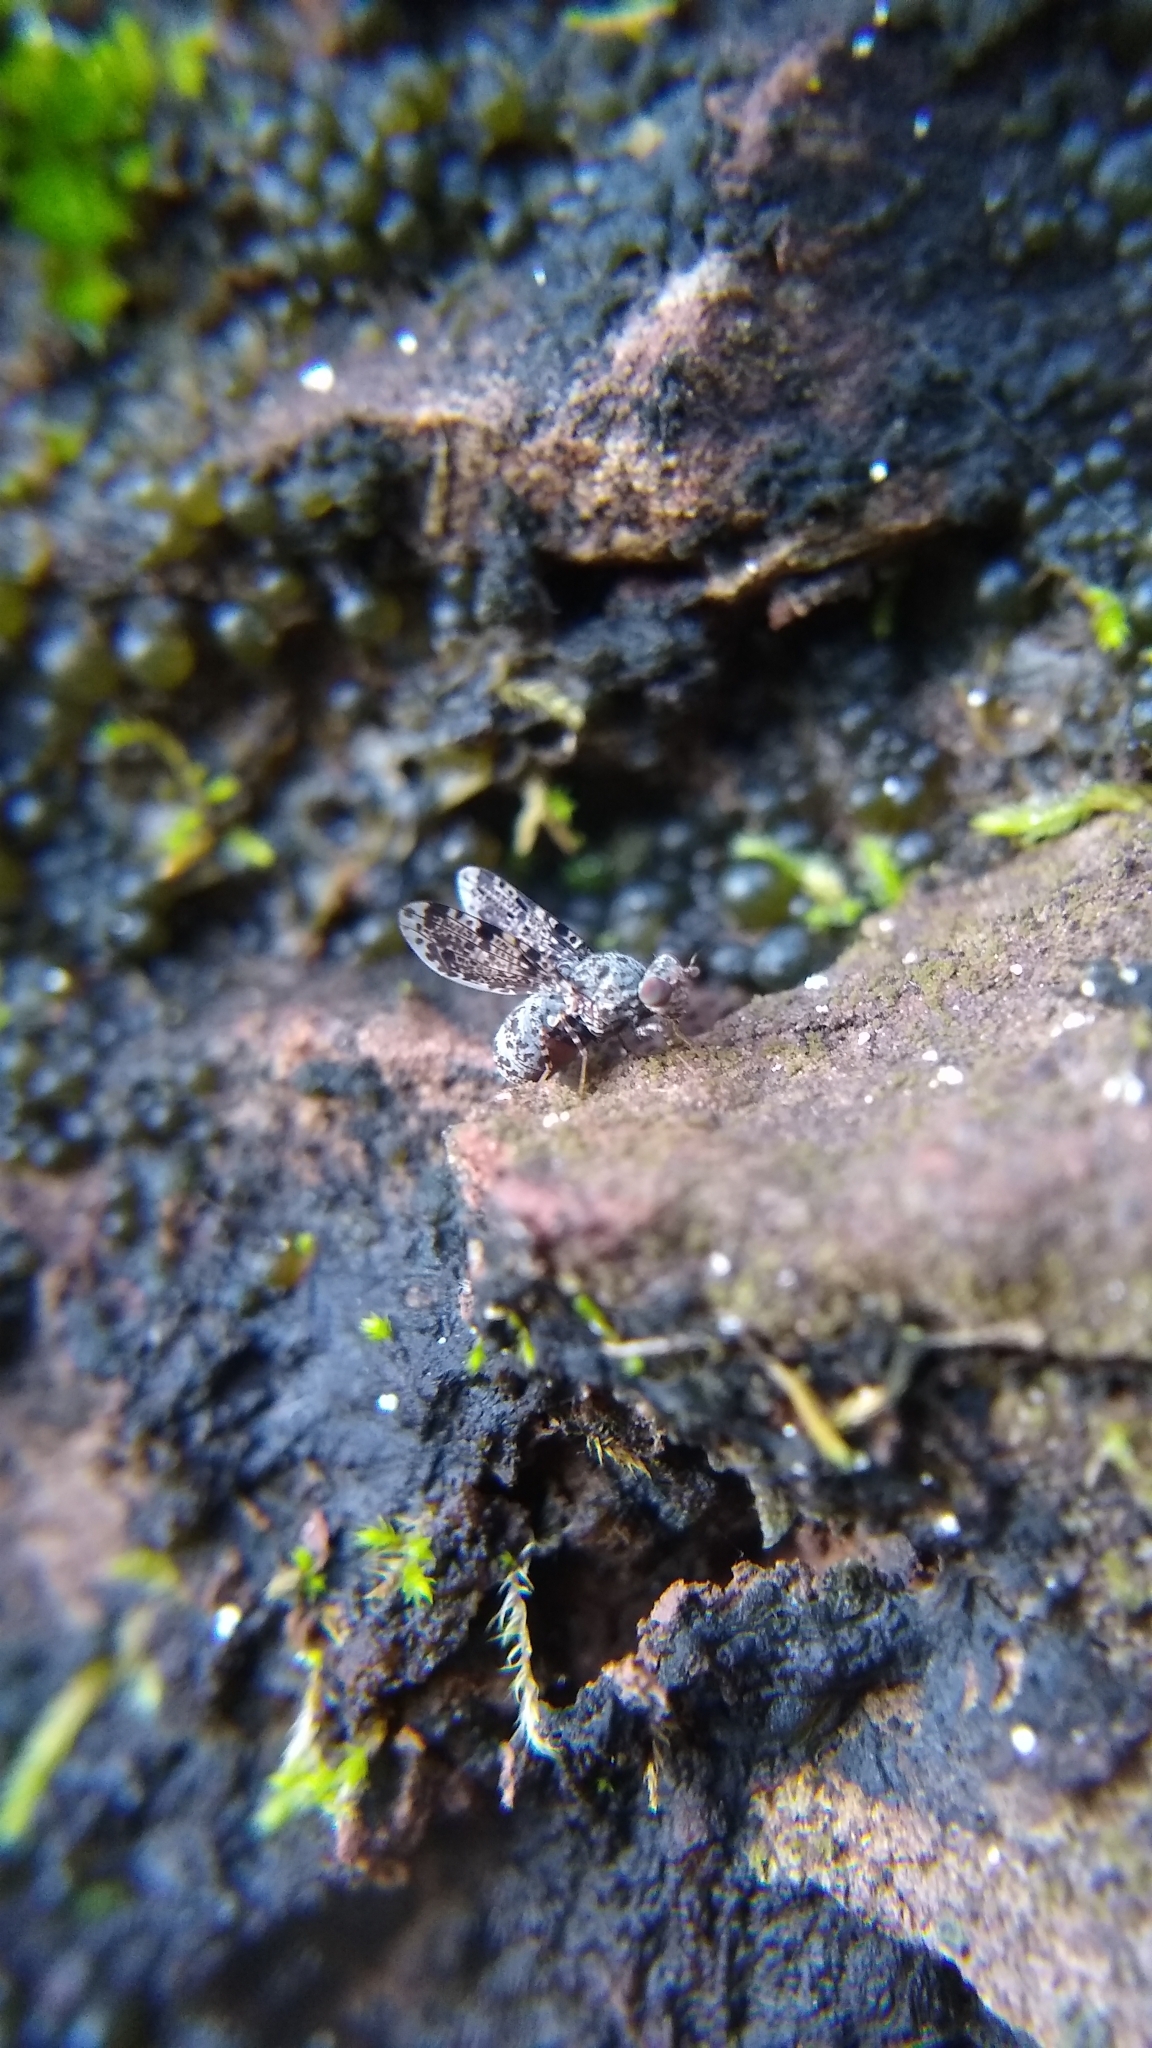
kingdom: Animalia
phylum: Arthropoda
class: Insecta
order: Diptera
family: Ulidiidae
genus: Callopistromyia
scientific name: Callopistromyia annulipes
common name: Peacock fly
